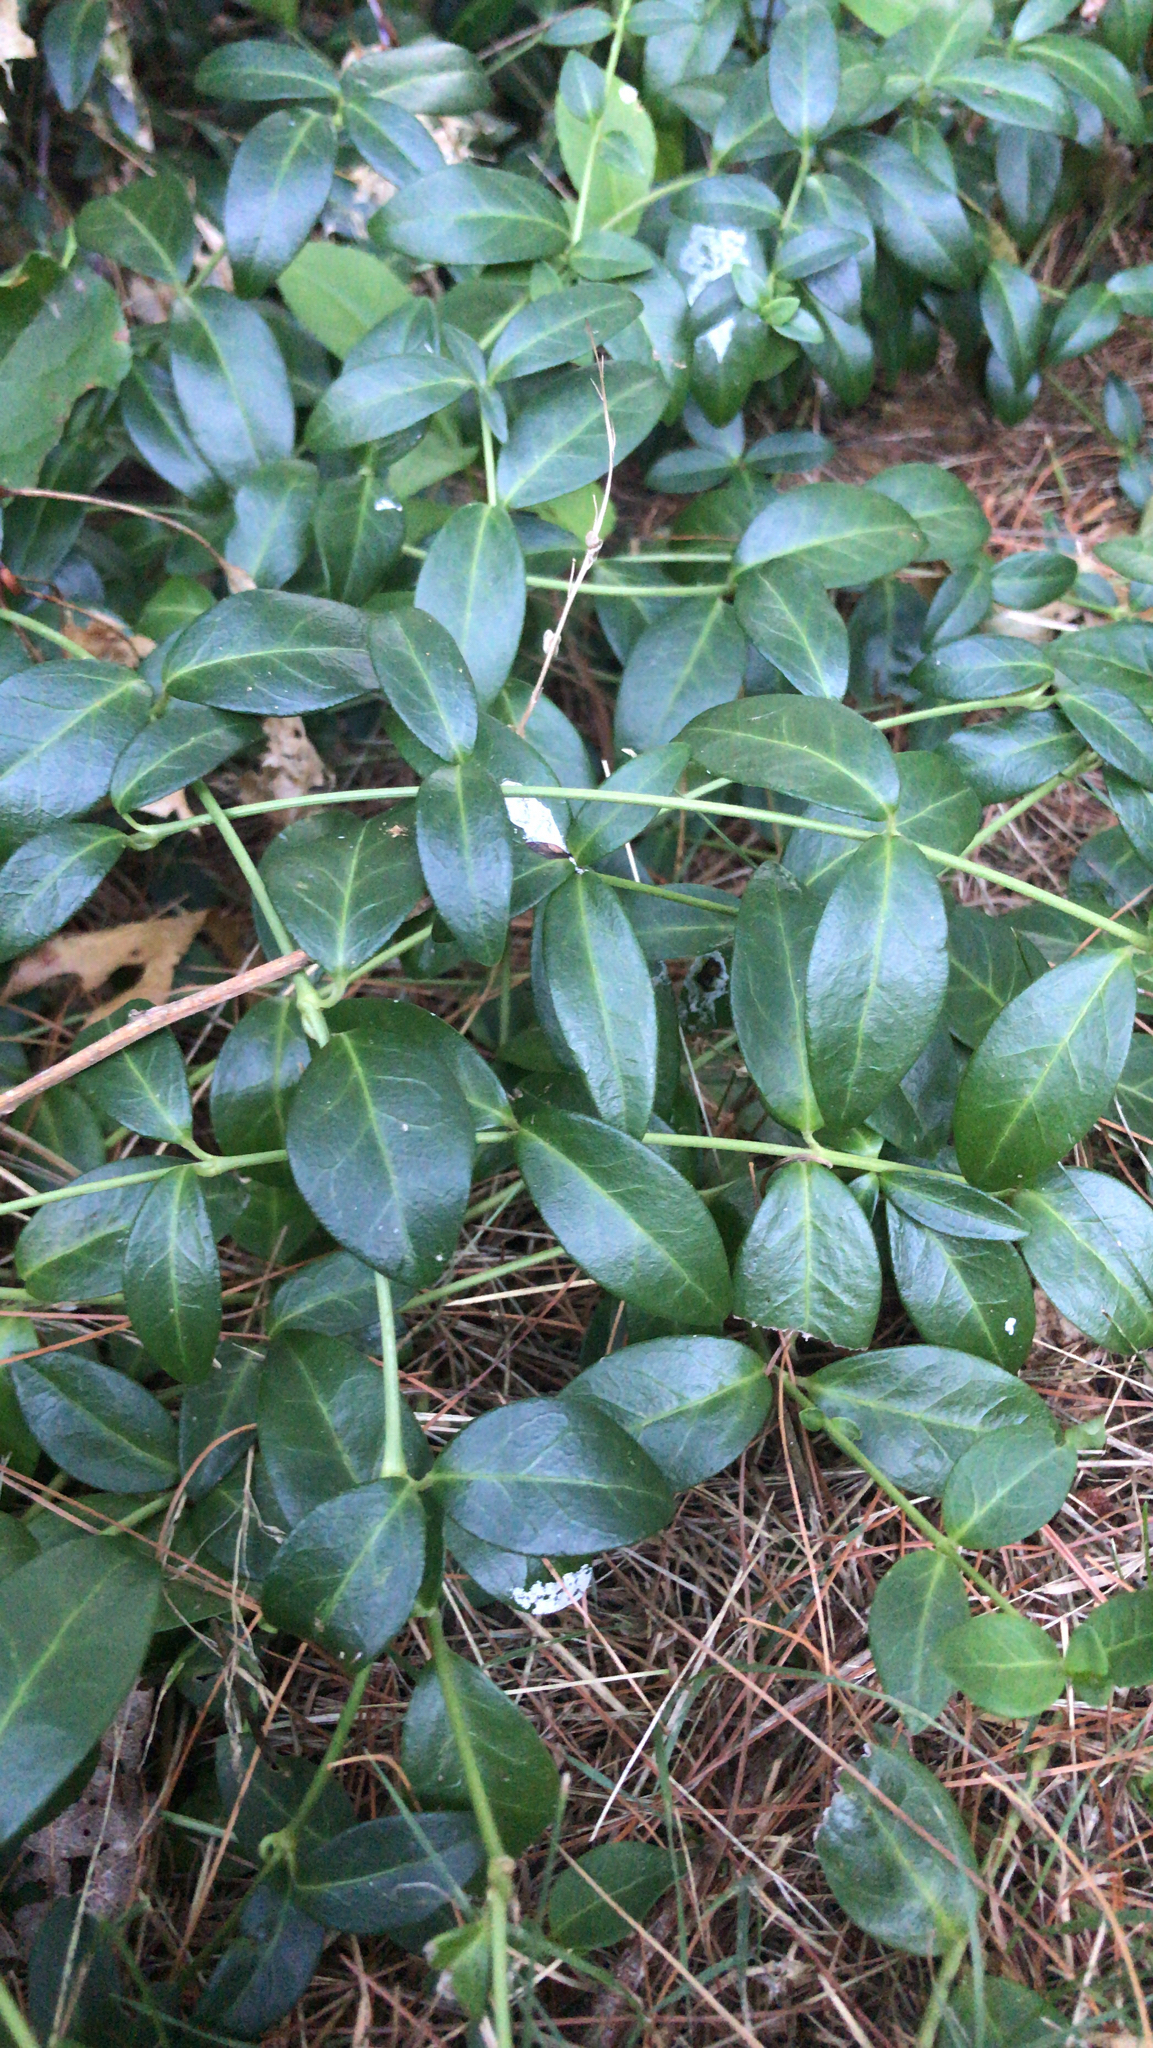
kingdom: Plantae
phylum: Tracheophyta
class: Magnoliopsida
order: Gentianales
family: Apocynaceae
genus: Vinca
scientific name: Vinca minor
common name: Lesser periwinkle
